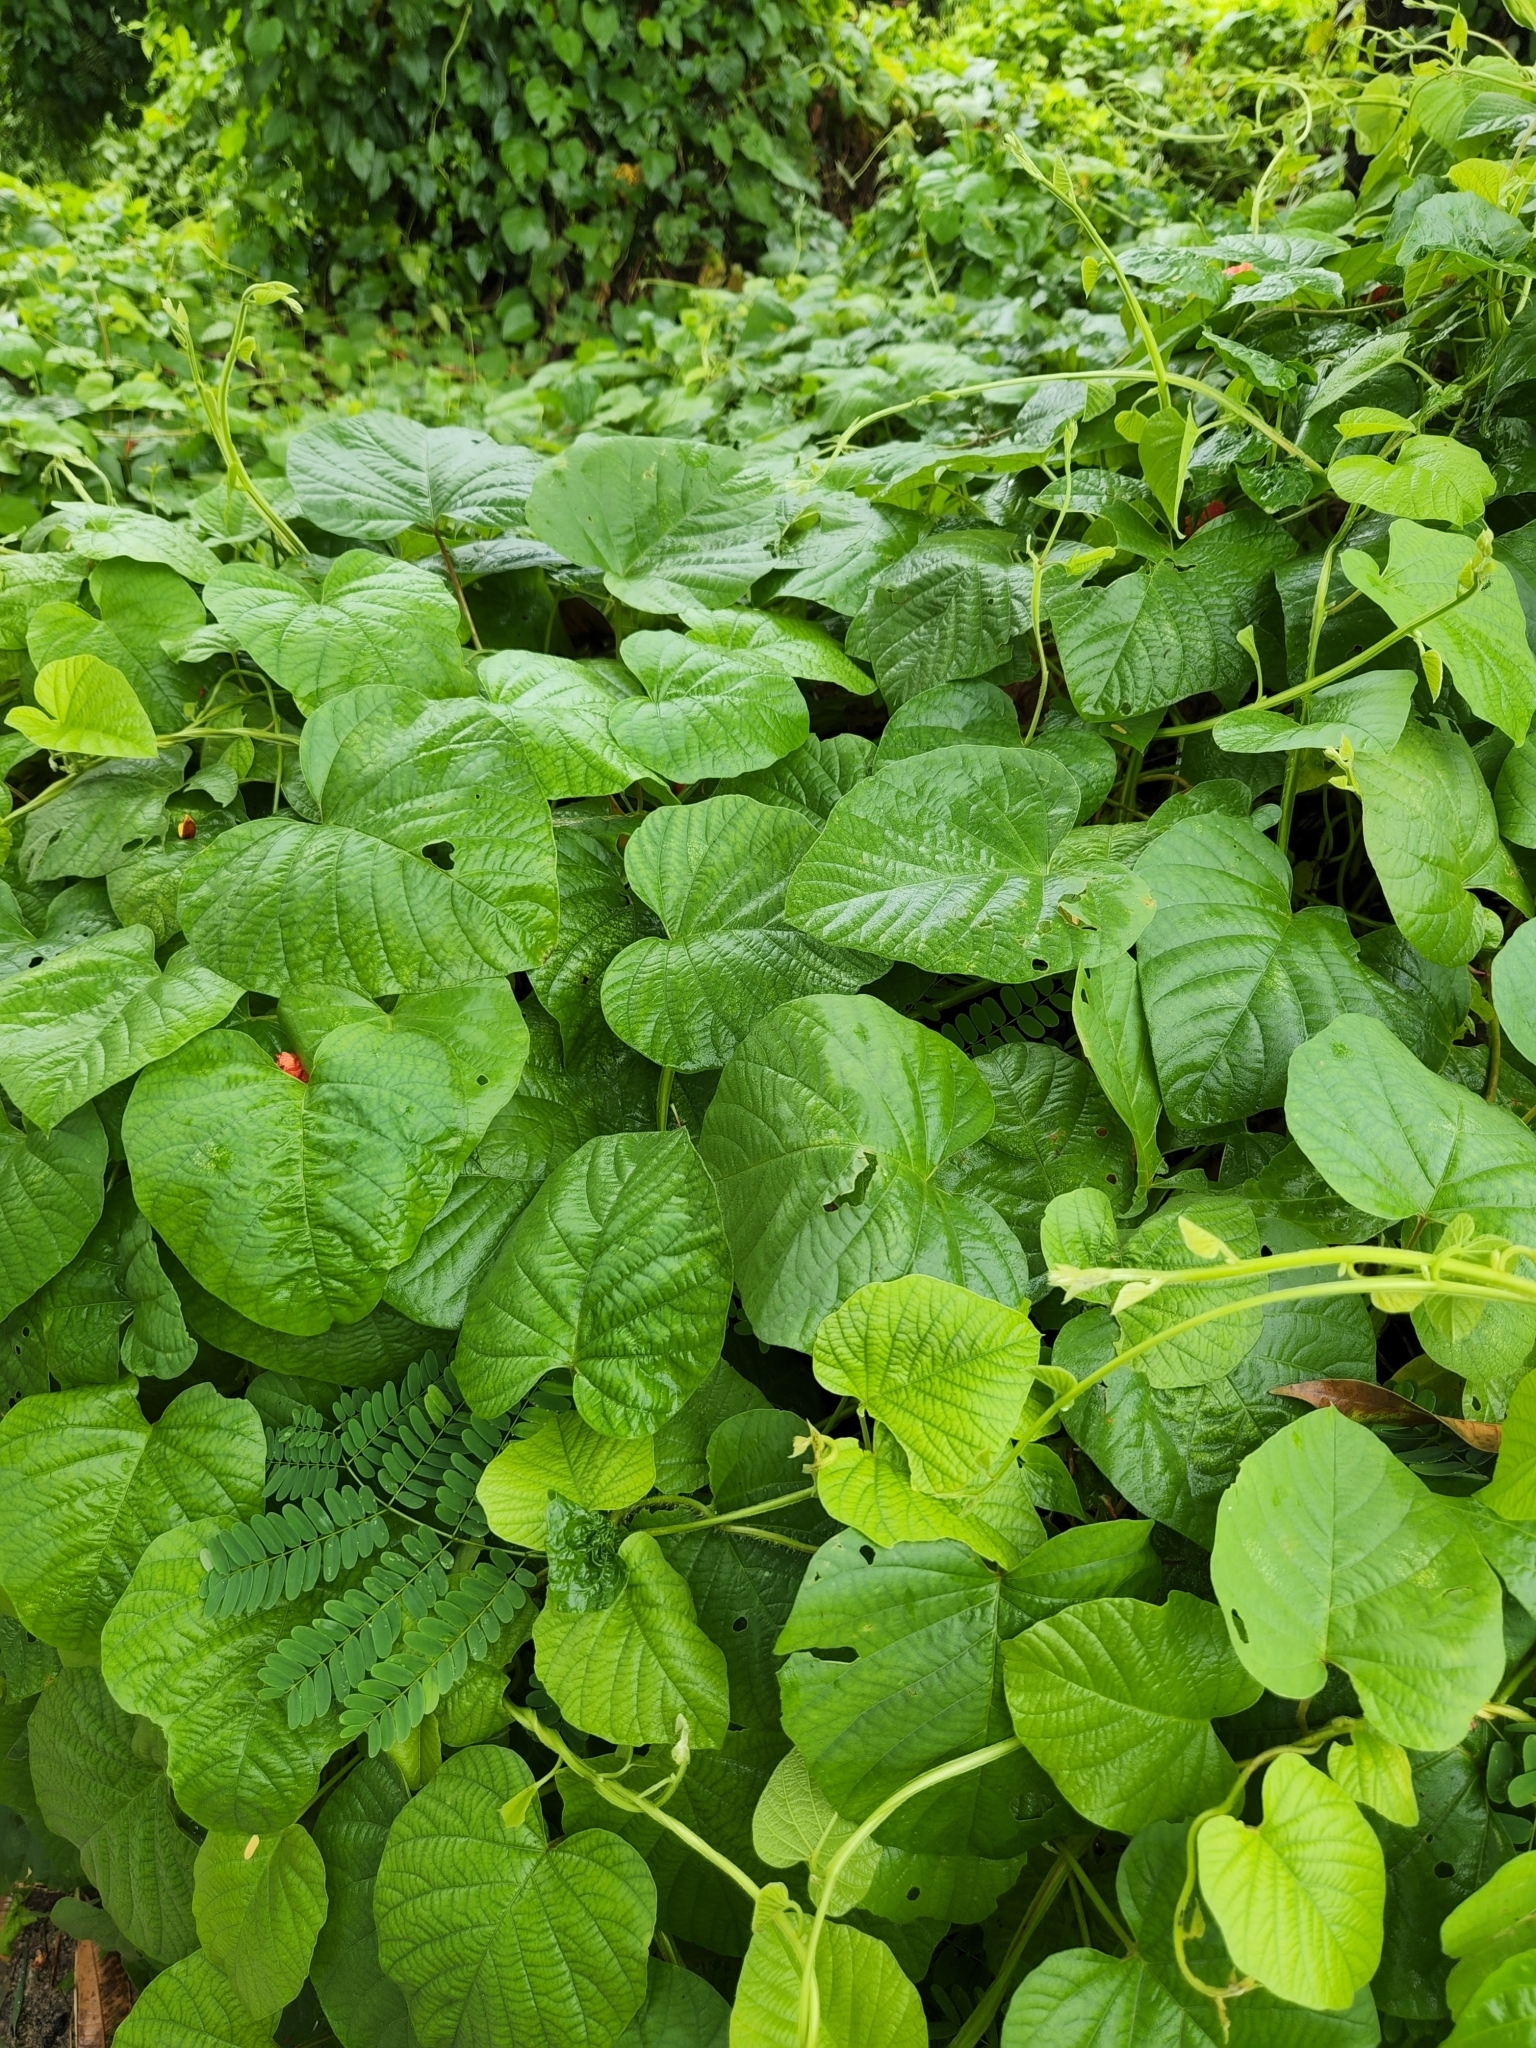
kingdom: Plantae
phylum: Tracheophyta
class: Magnoliopsida
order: Solanales
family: Convolvulaceae
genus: Operculina
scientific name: Operculina turpethum
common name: Transparent wood-rose
